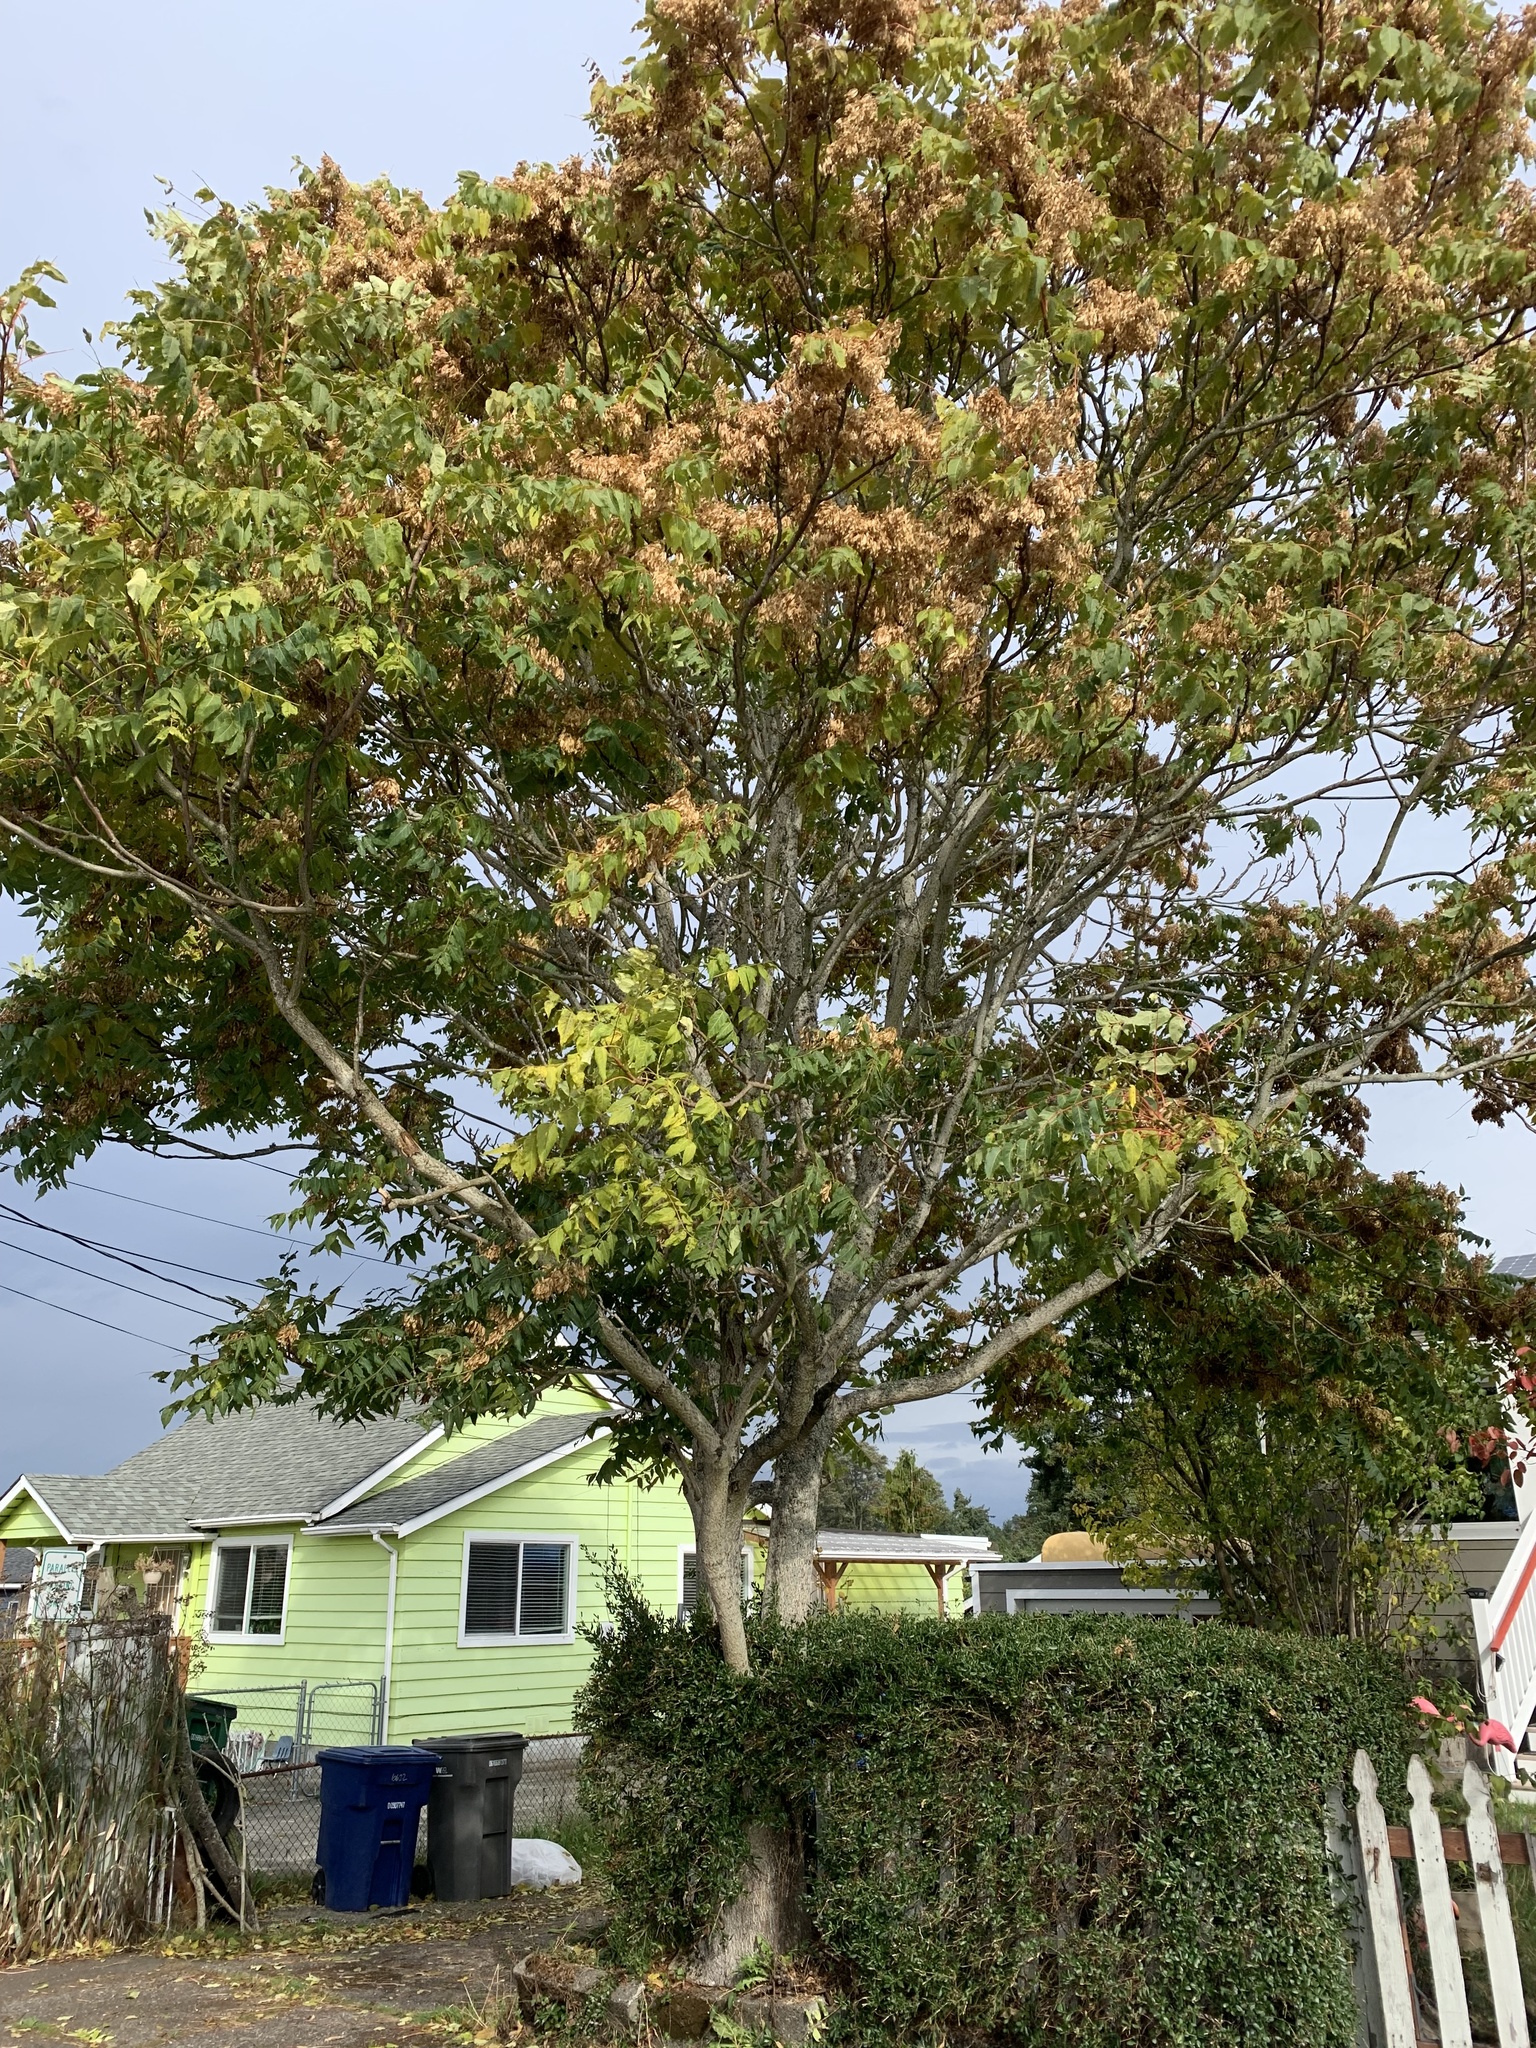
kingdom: Plantae
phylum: Tracheophyta
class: Magnoliopsida
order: Sapindales
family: Simaroubaceae
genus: Ailanthus
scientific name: Ailanthus altissima
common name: Tree-of-heaven
